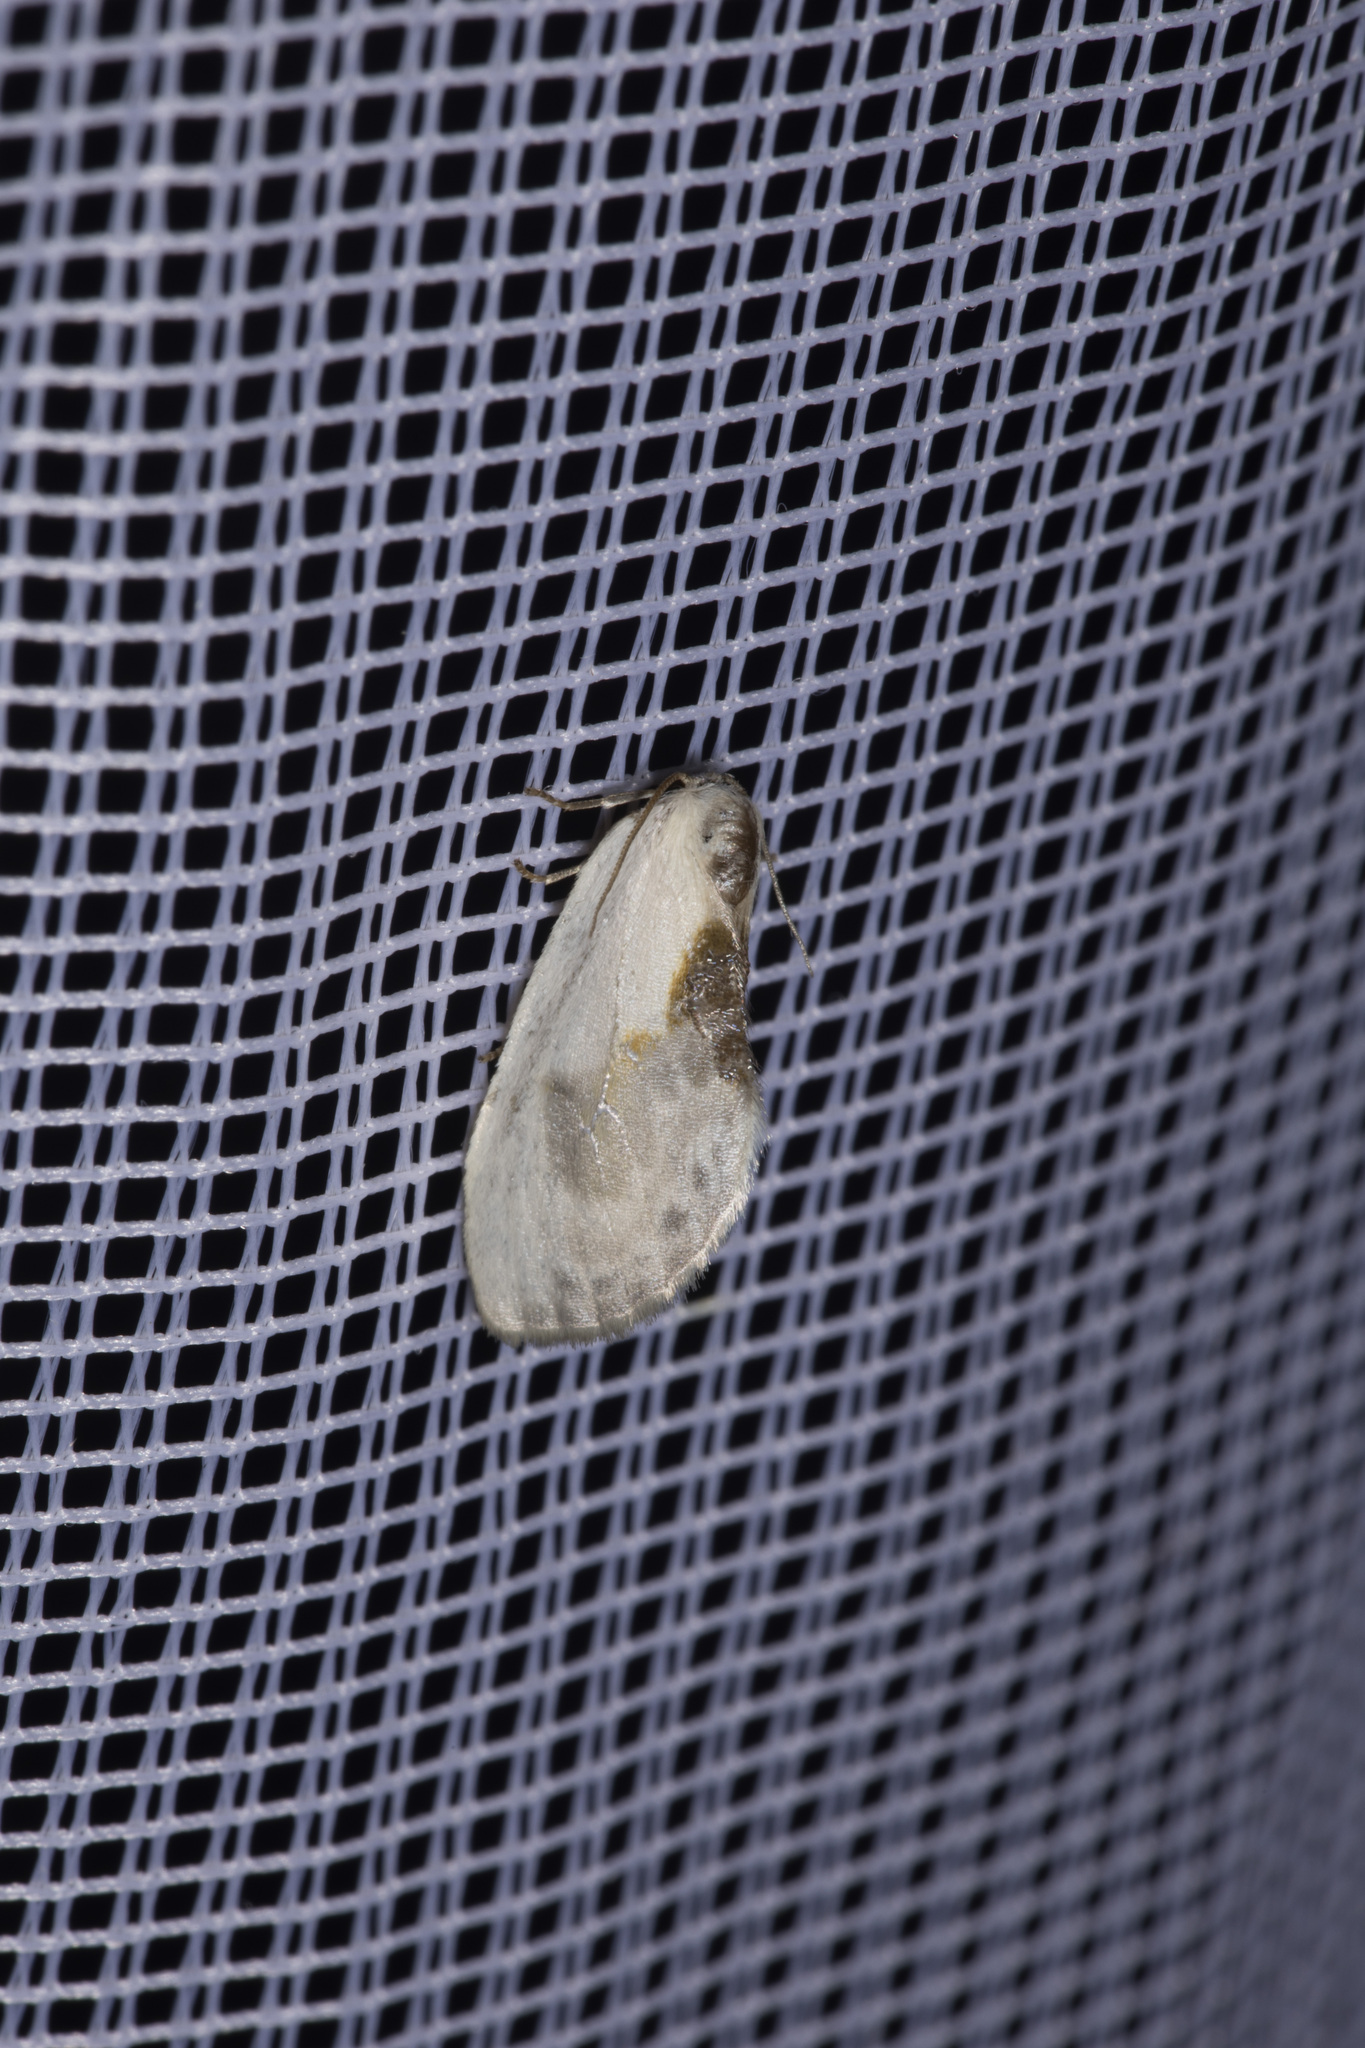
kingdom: Animalia
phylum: Arthropoda
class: Insecta
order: Lepidoptera
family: Drepanidae
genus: Cilix
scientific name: Cilix glaucata
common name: Chinese character
